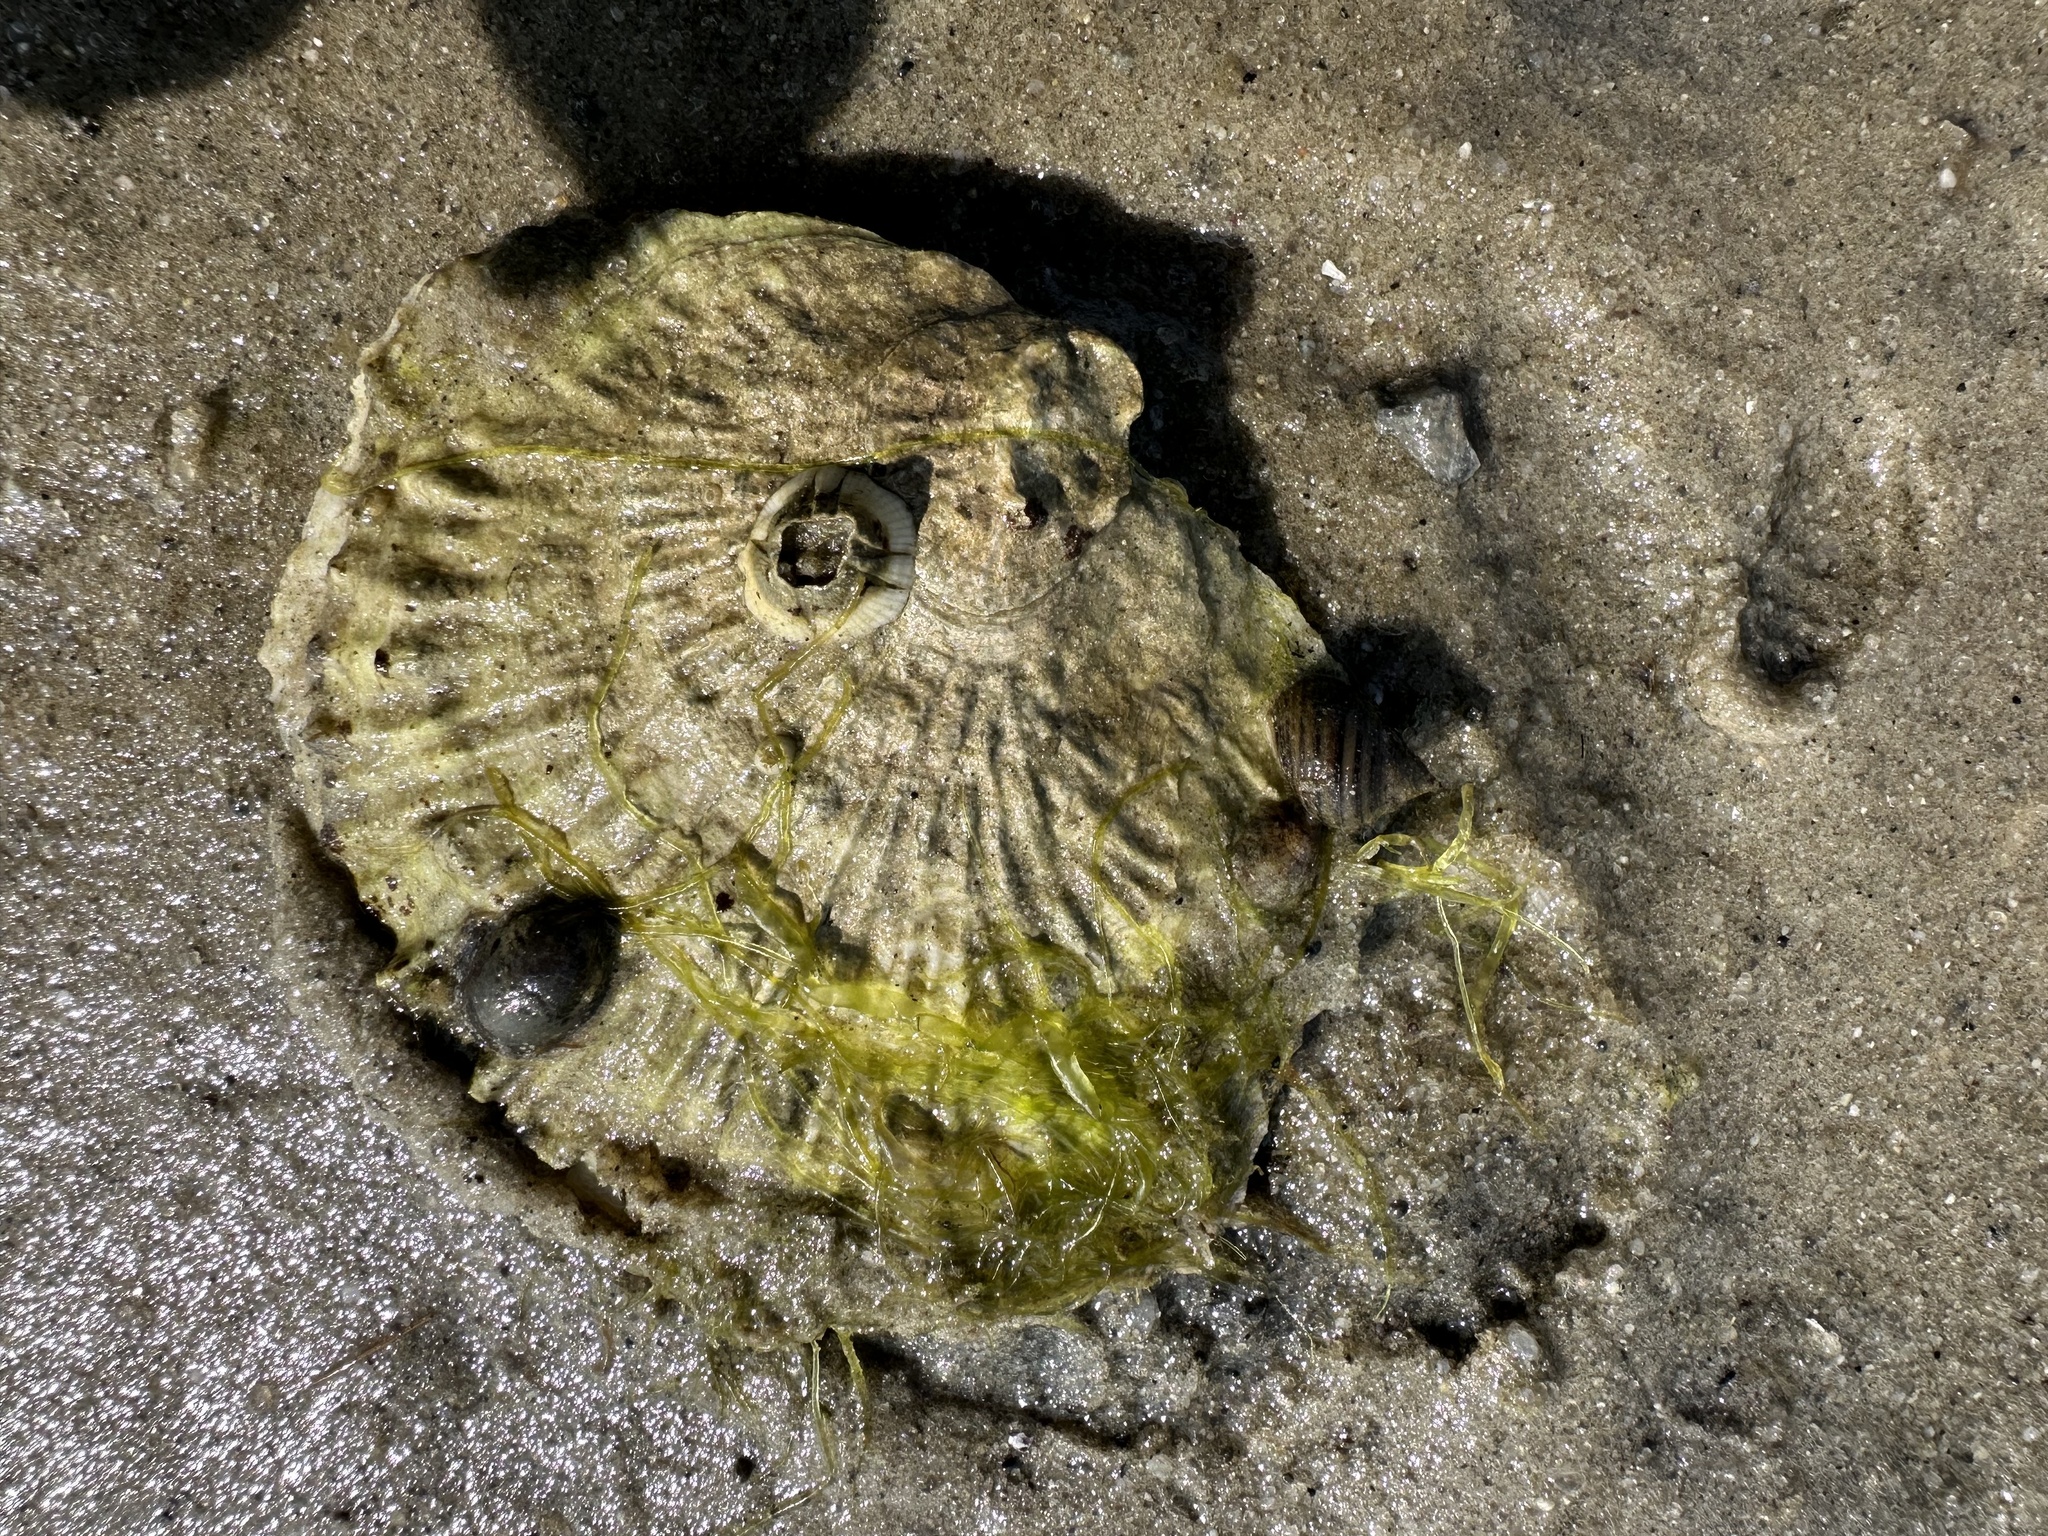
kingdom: Animalia
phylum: Mollusca
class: Bivalvia
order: Ostreida
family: Ostreidae
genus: Ostrea
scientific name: Ostrea edulis
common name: Flat oyster
